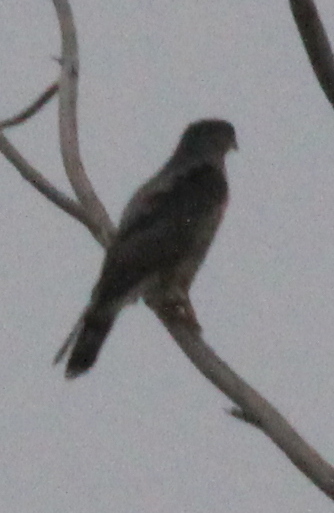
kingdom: Animalia
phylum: Chordata
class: Aves
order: Accipitriformes
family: Accipitridae
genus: Accipiter
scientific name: Accipiter
